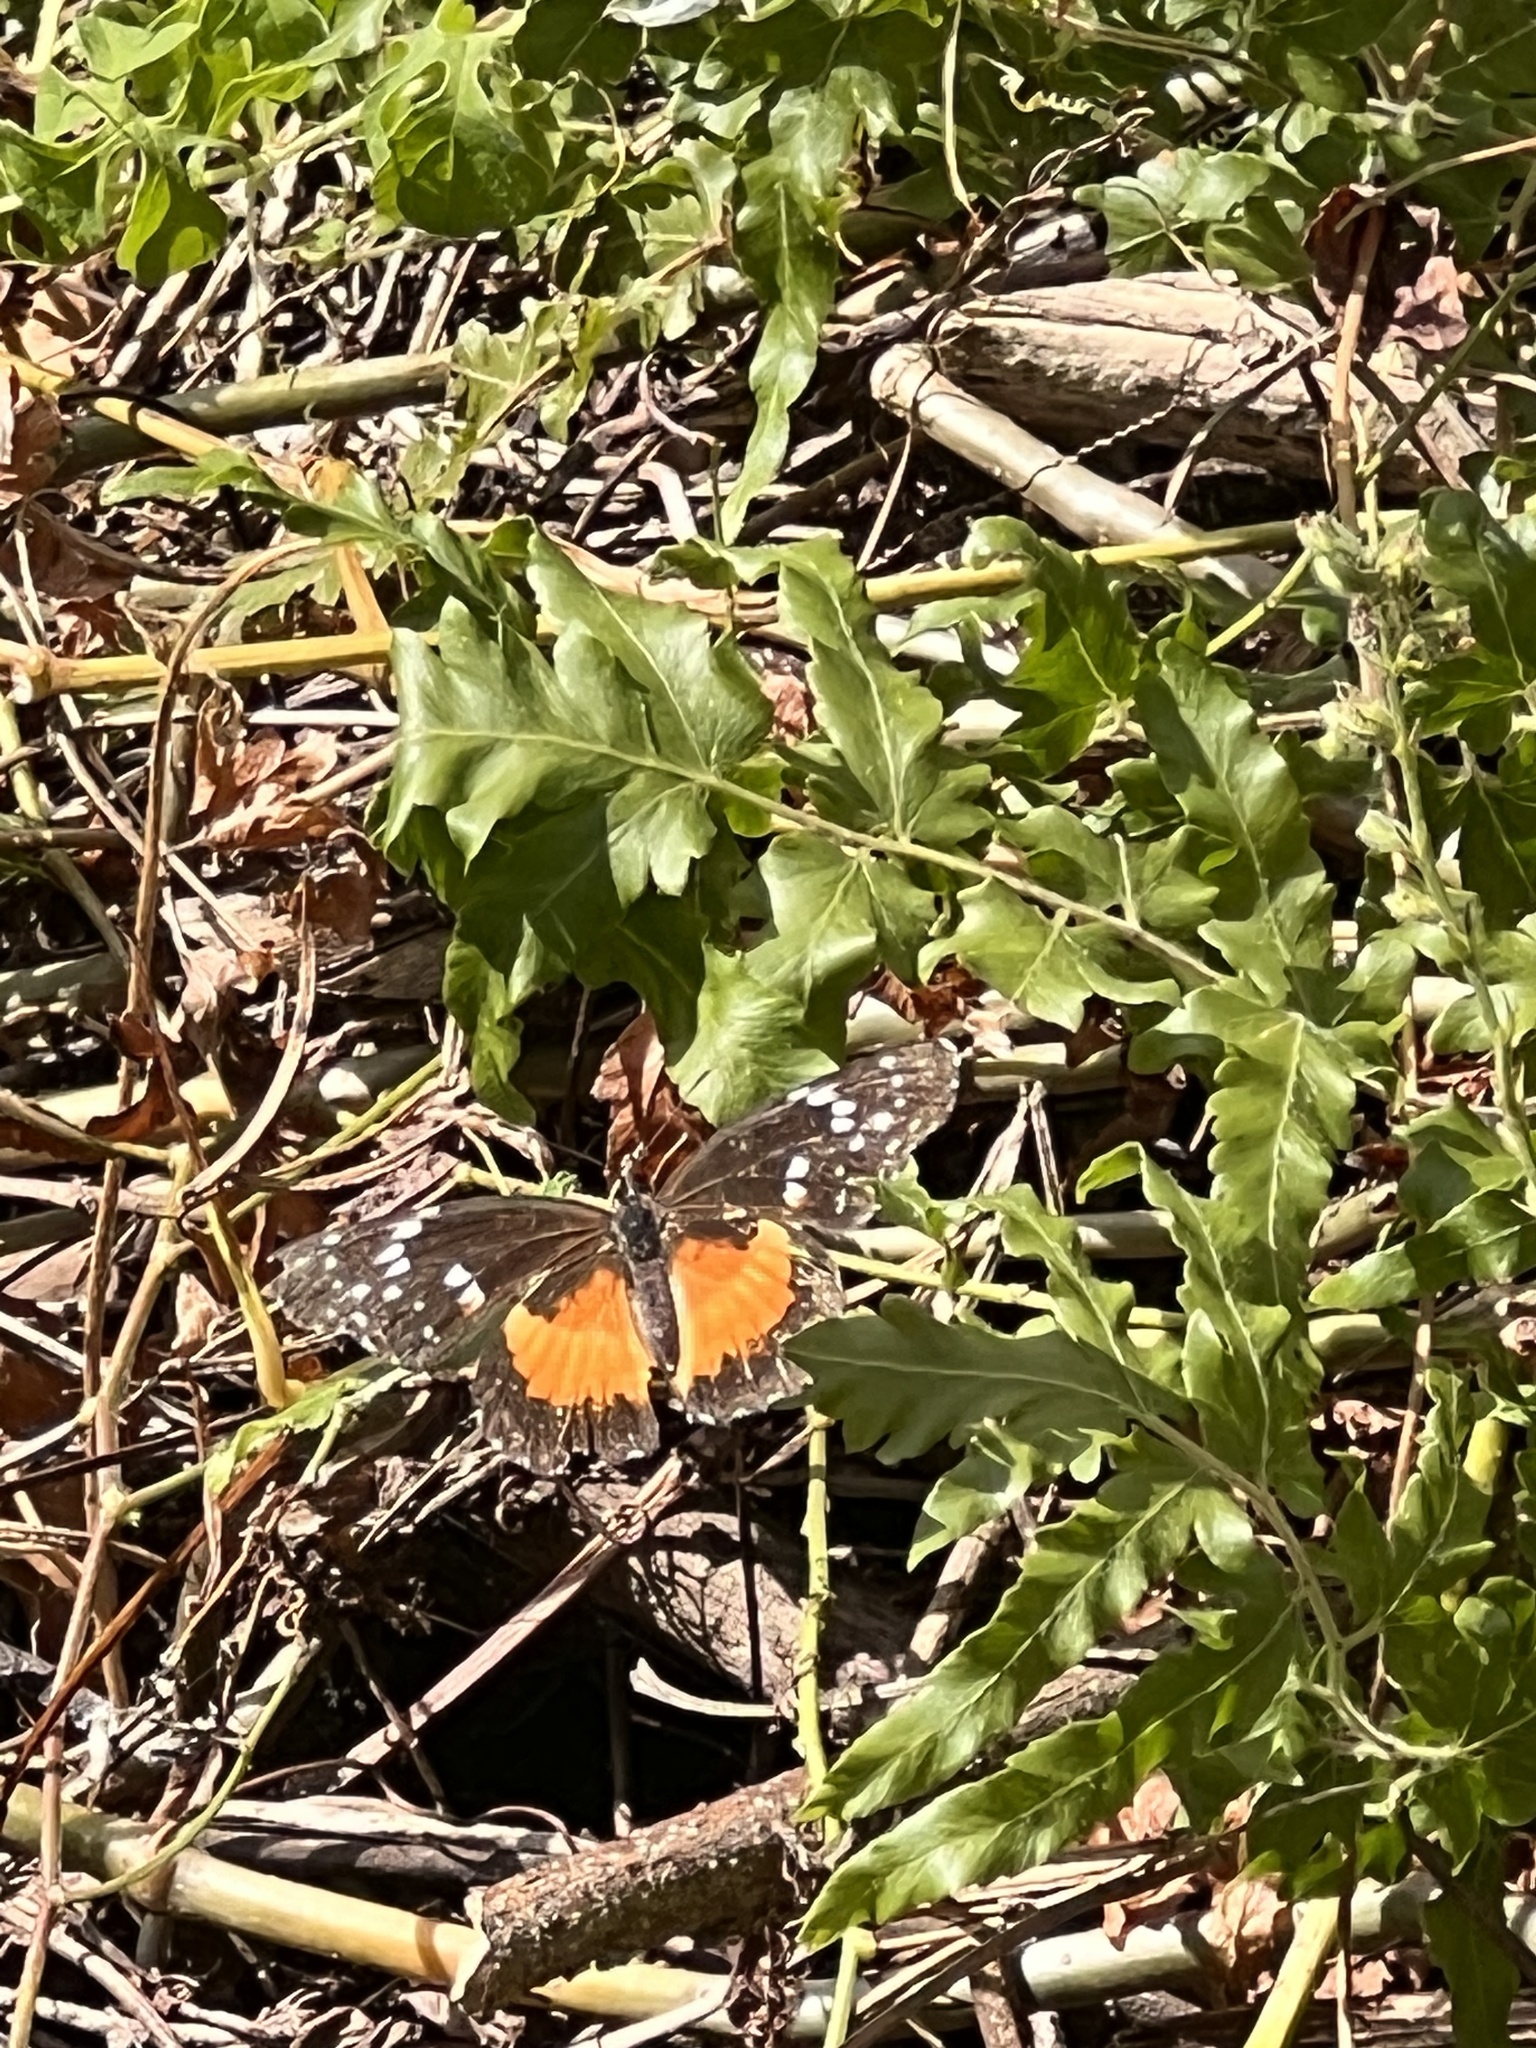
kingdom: Animalia
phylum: Arthropoda
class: Insecta
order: Lepidoptera
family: Nymphalidae
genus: Chlosyne
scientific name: Chlosyne lacinia
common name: Bordered patch
